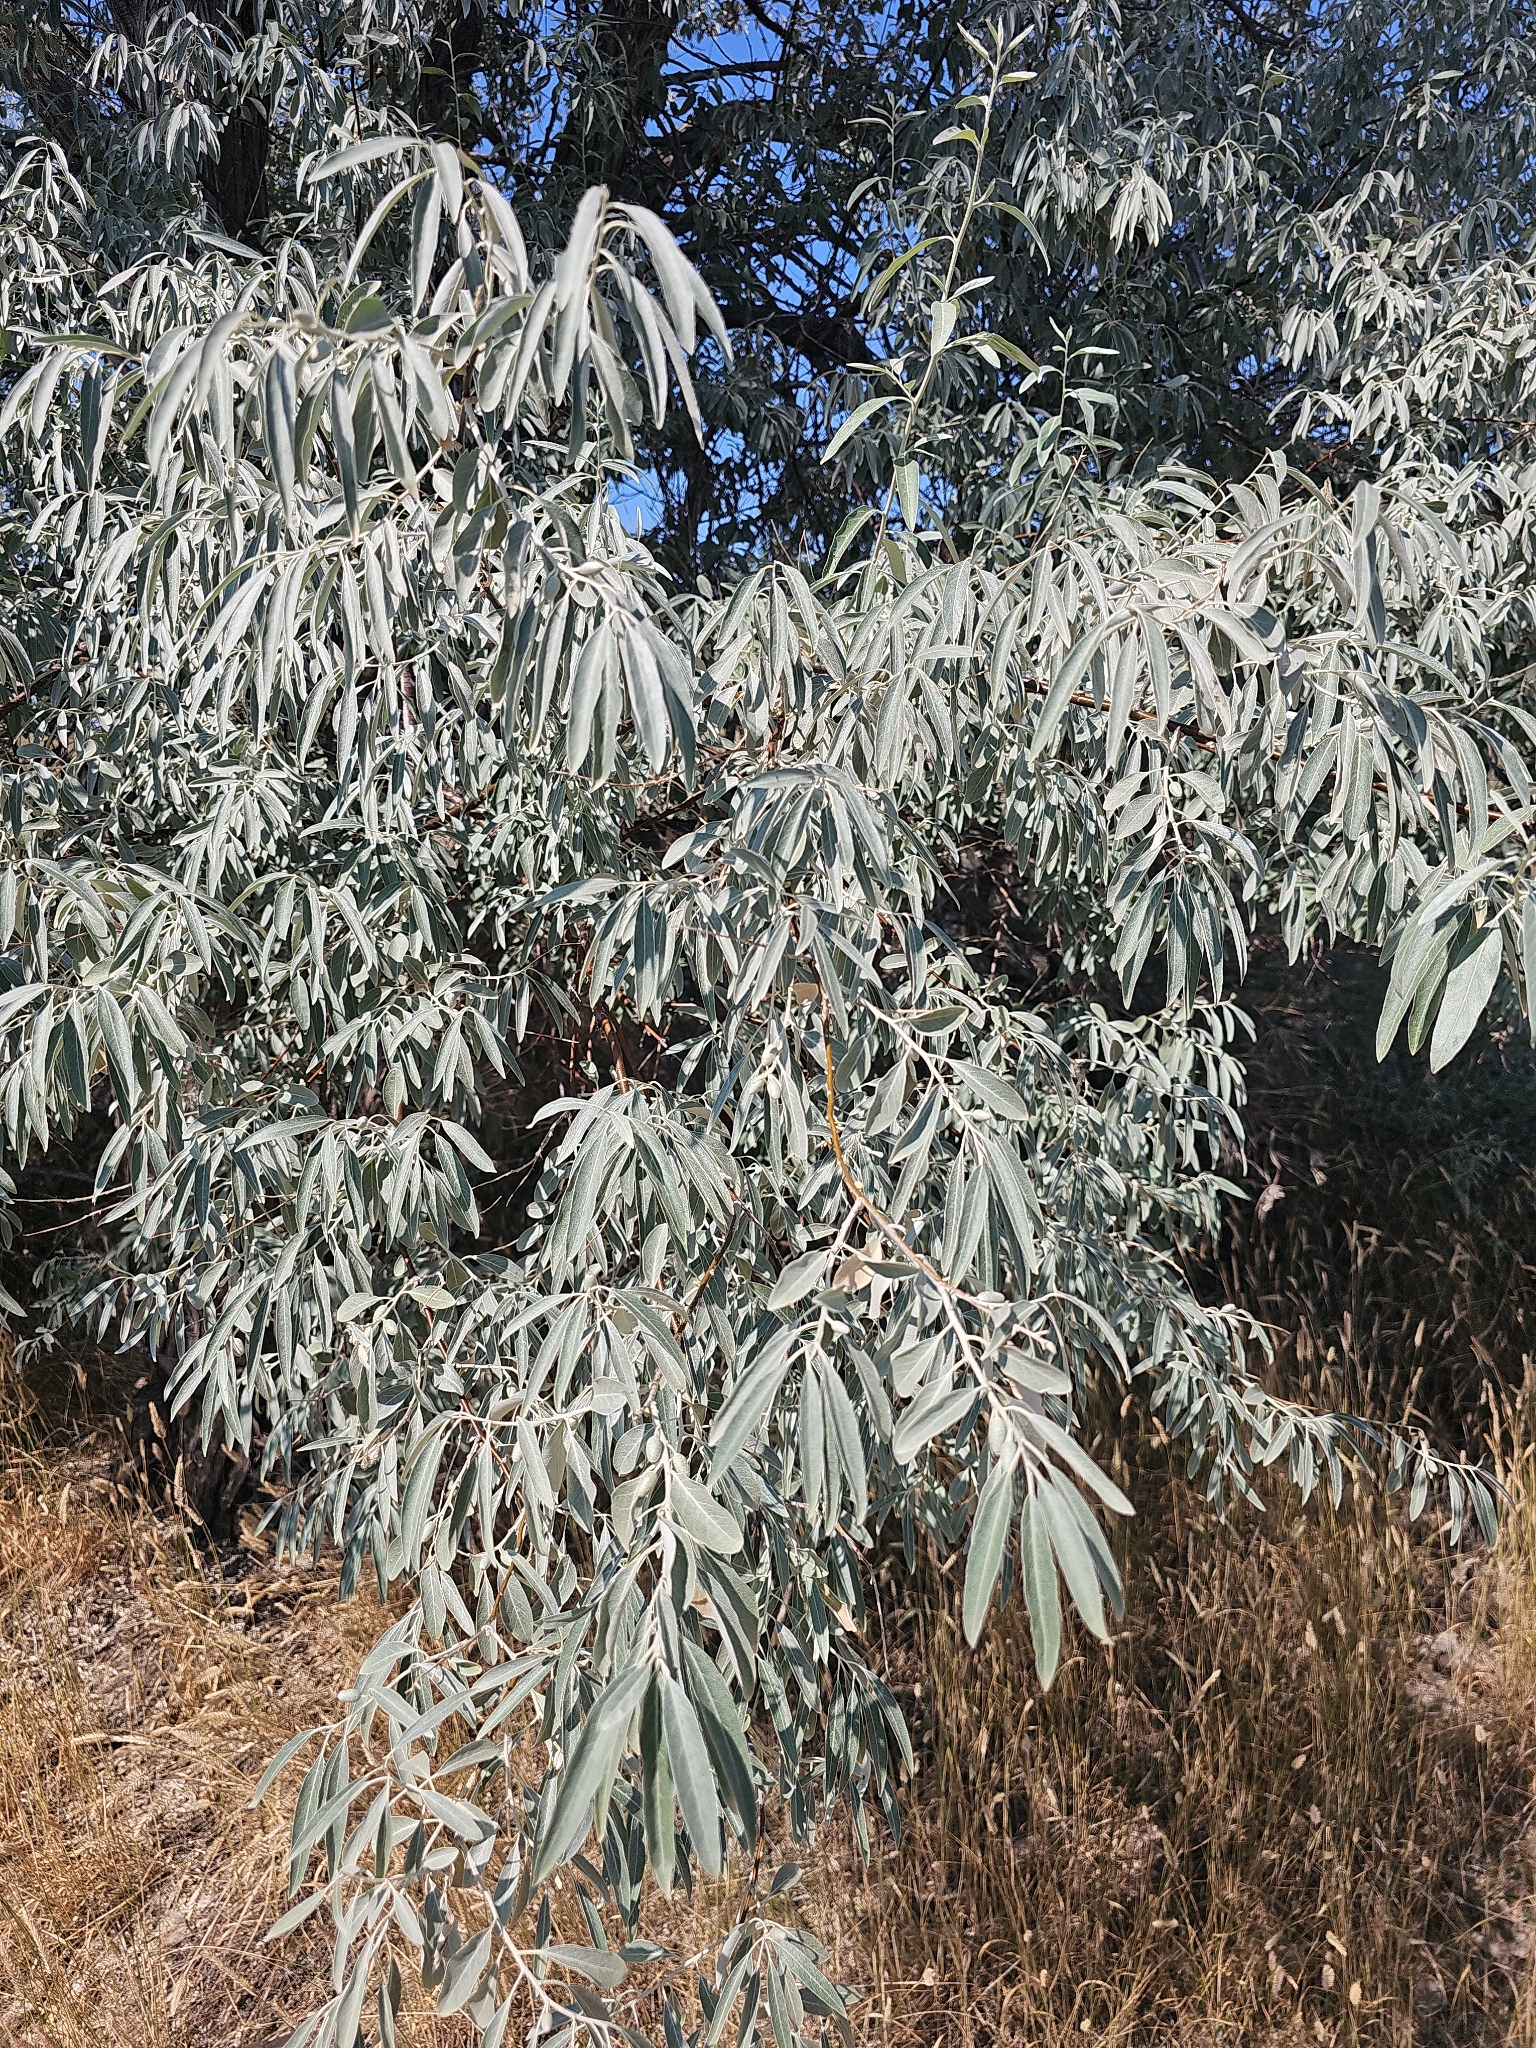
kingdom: Plantae
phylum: Tracheophyta
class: Magnoliopsida
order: Rosales
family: Elaeagnaceae
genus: Elaeagnus
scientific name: Elaeagnus angustifolia
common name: Russian olive
